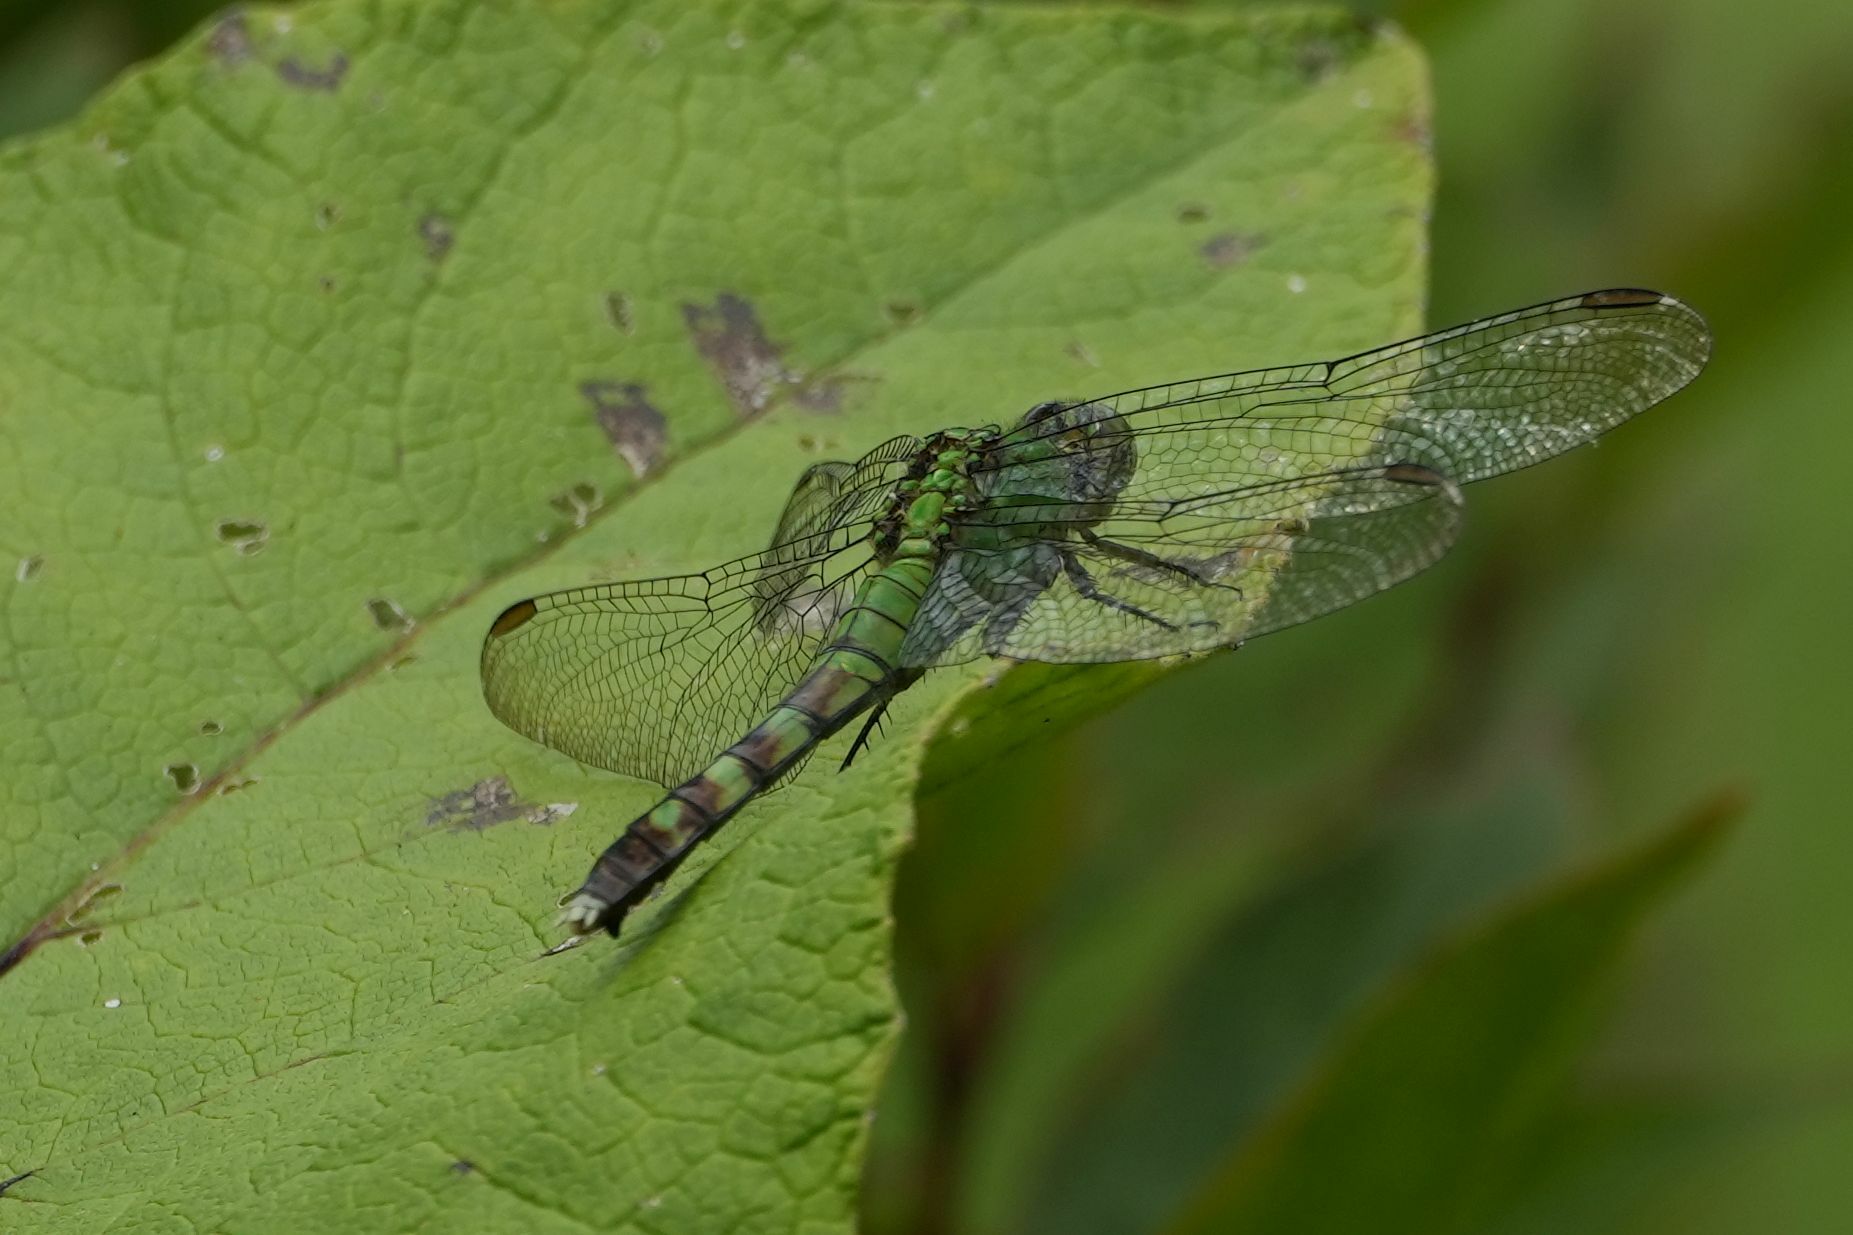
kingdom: Animalia
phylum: Arthropoda
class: Insecta
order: Odonata
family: Libellulidae
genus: Erythemis
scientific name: Erythemis simplicicollis
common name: Eastern pondhawk
